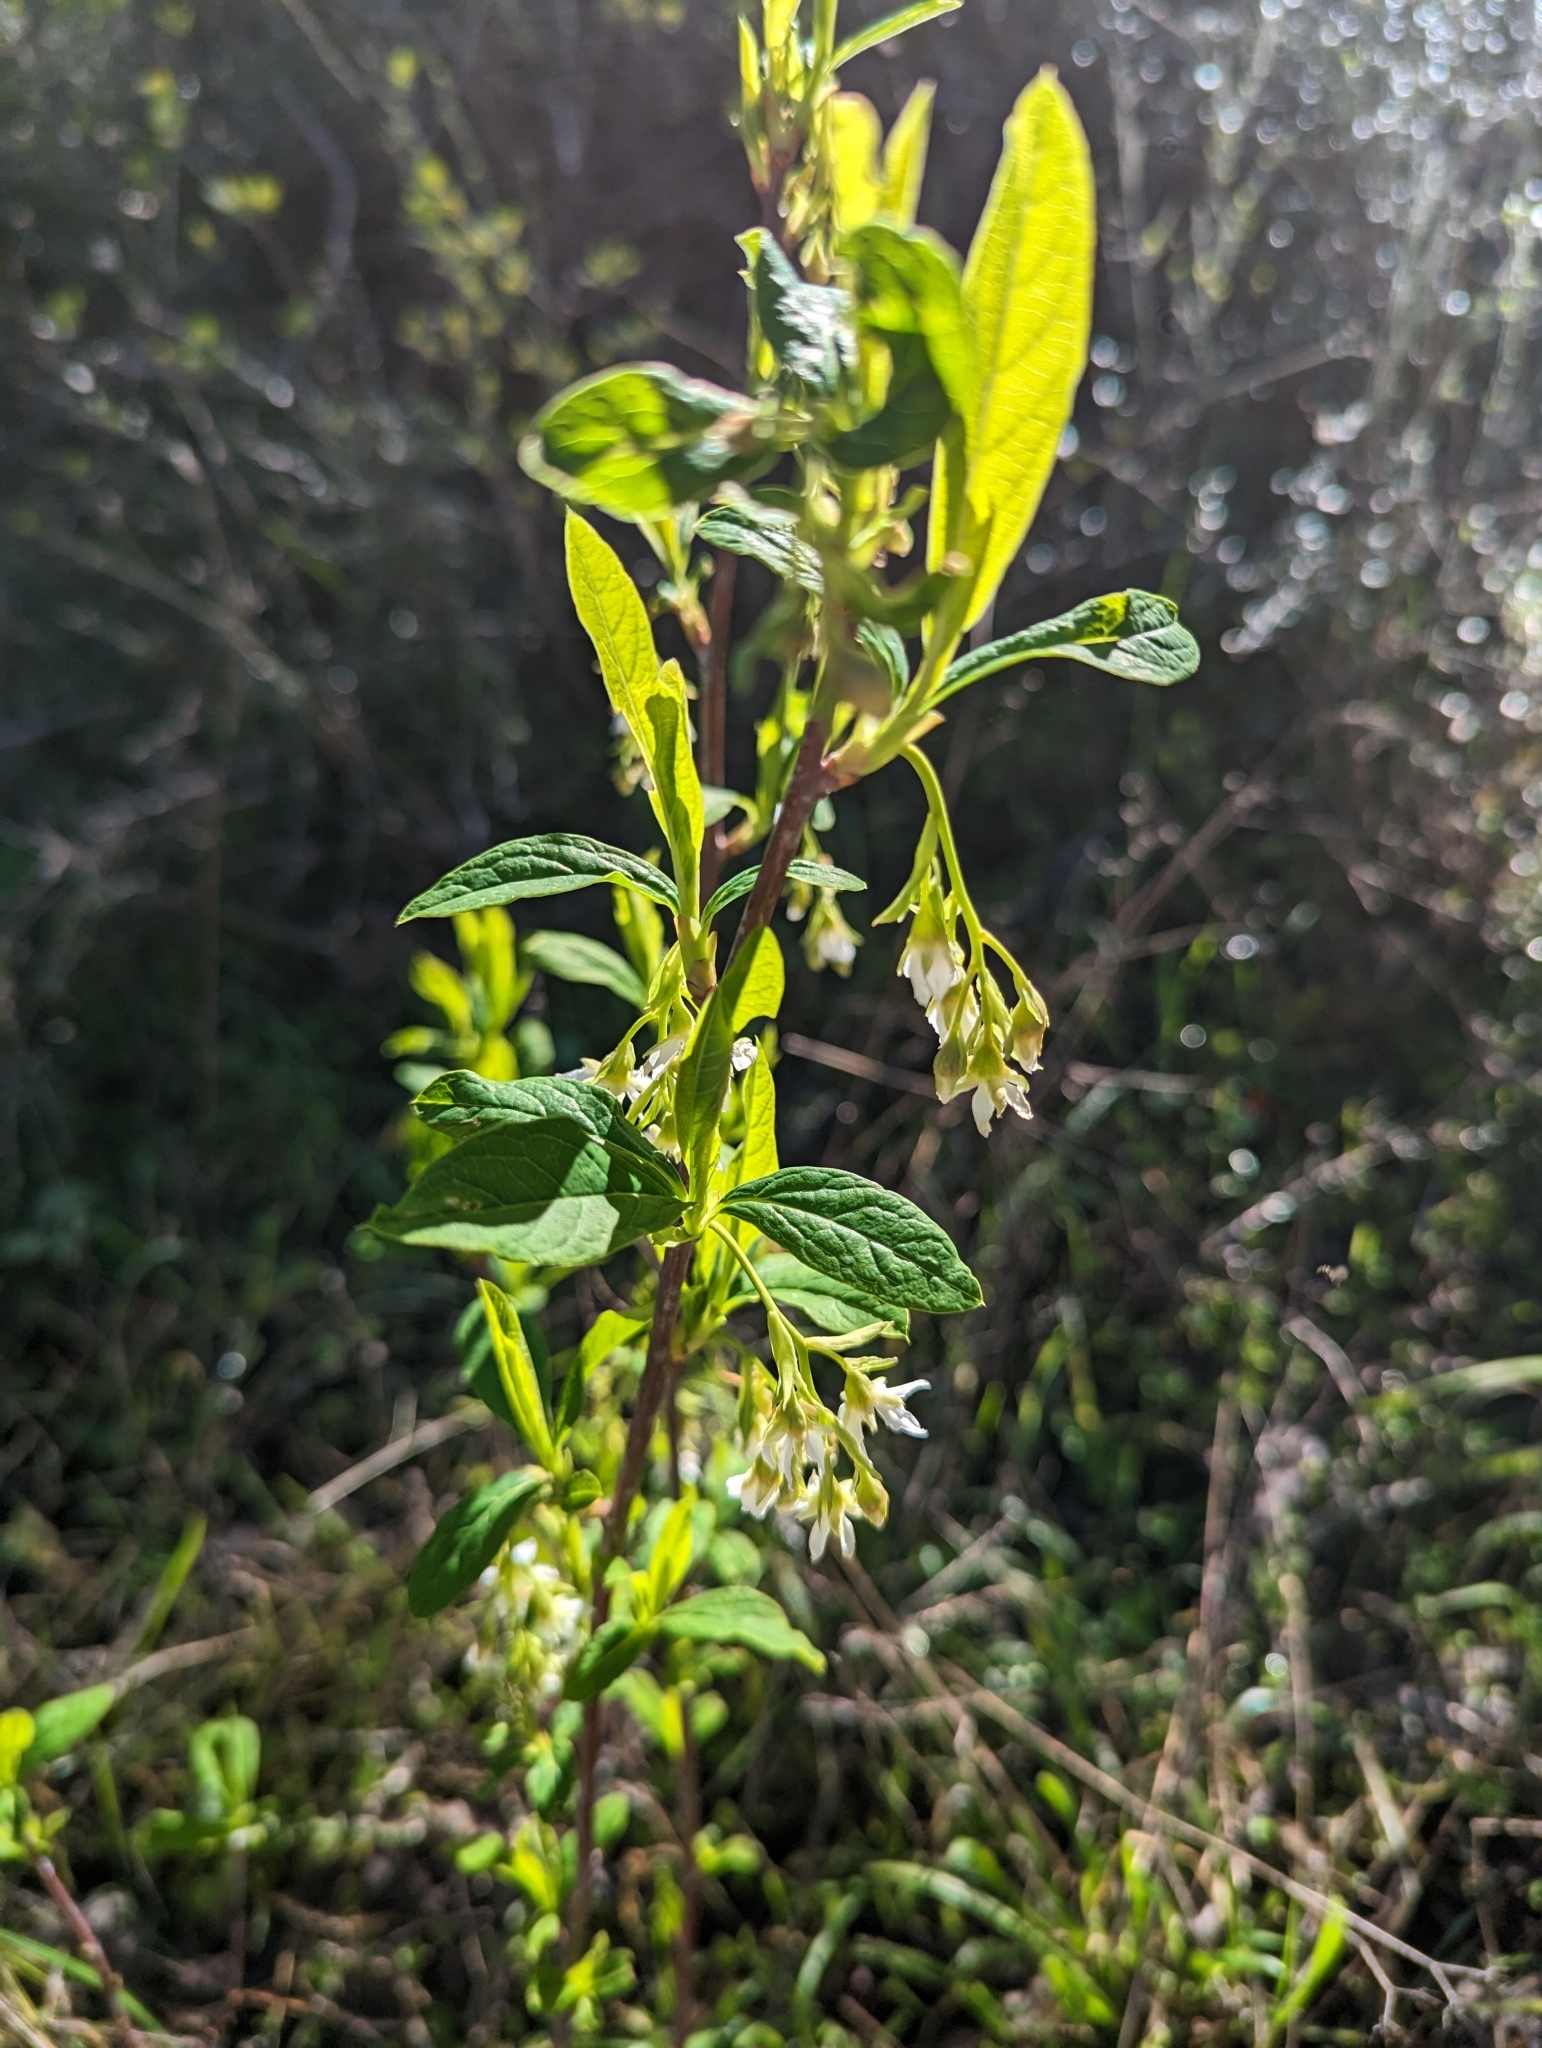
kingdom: Plantae
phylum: Tracheophyta
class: Magnoliopsida
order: Rosales
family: Rosaceae
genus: Oemleria
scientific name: Oemleria cerasiformis
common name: Osoberry
